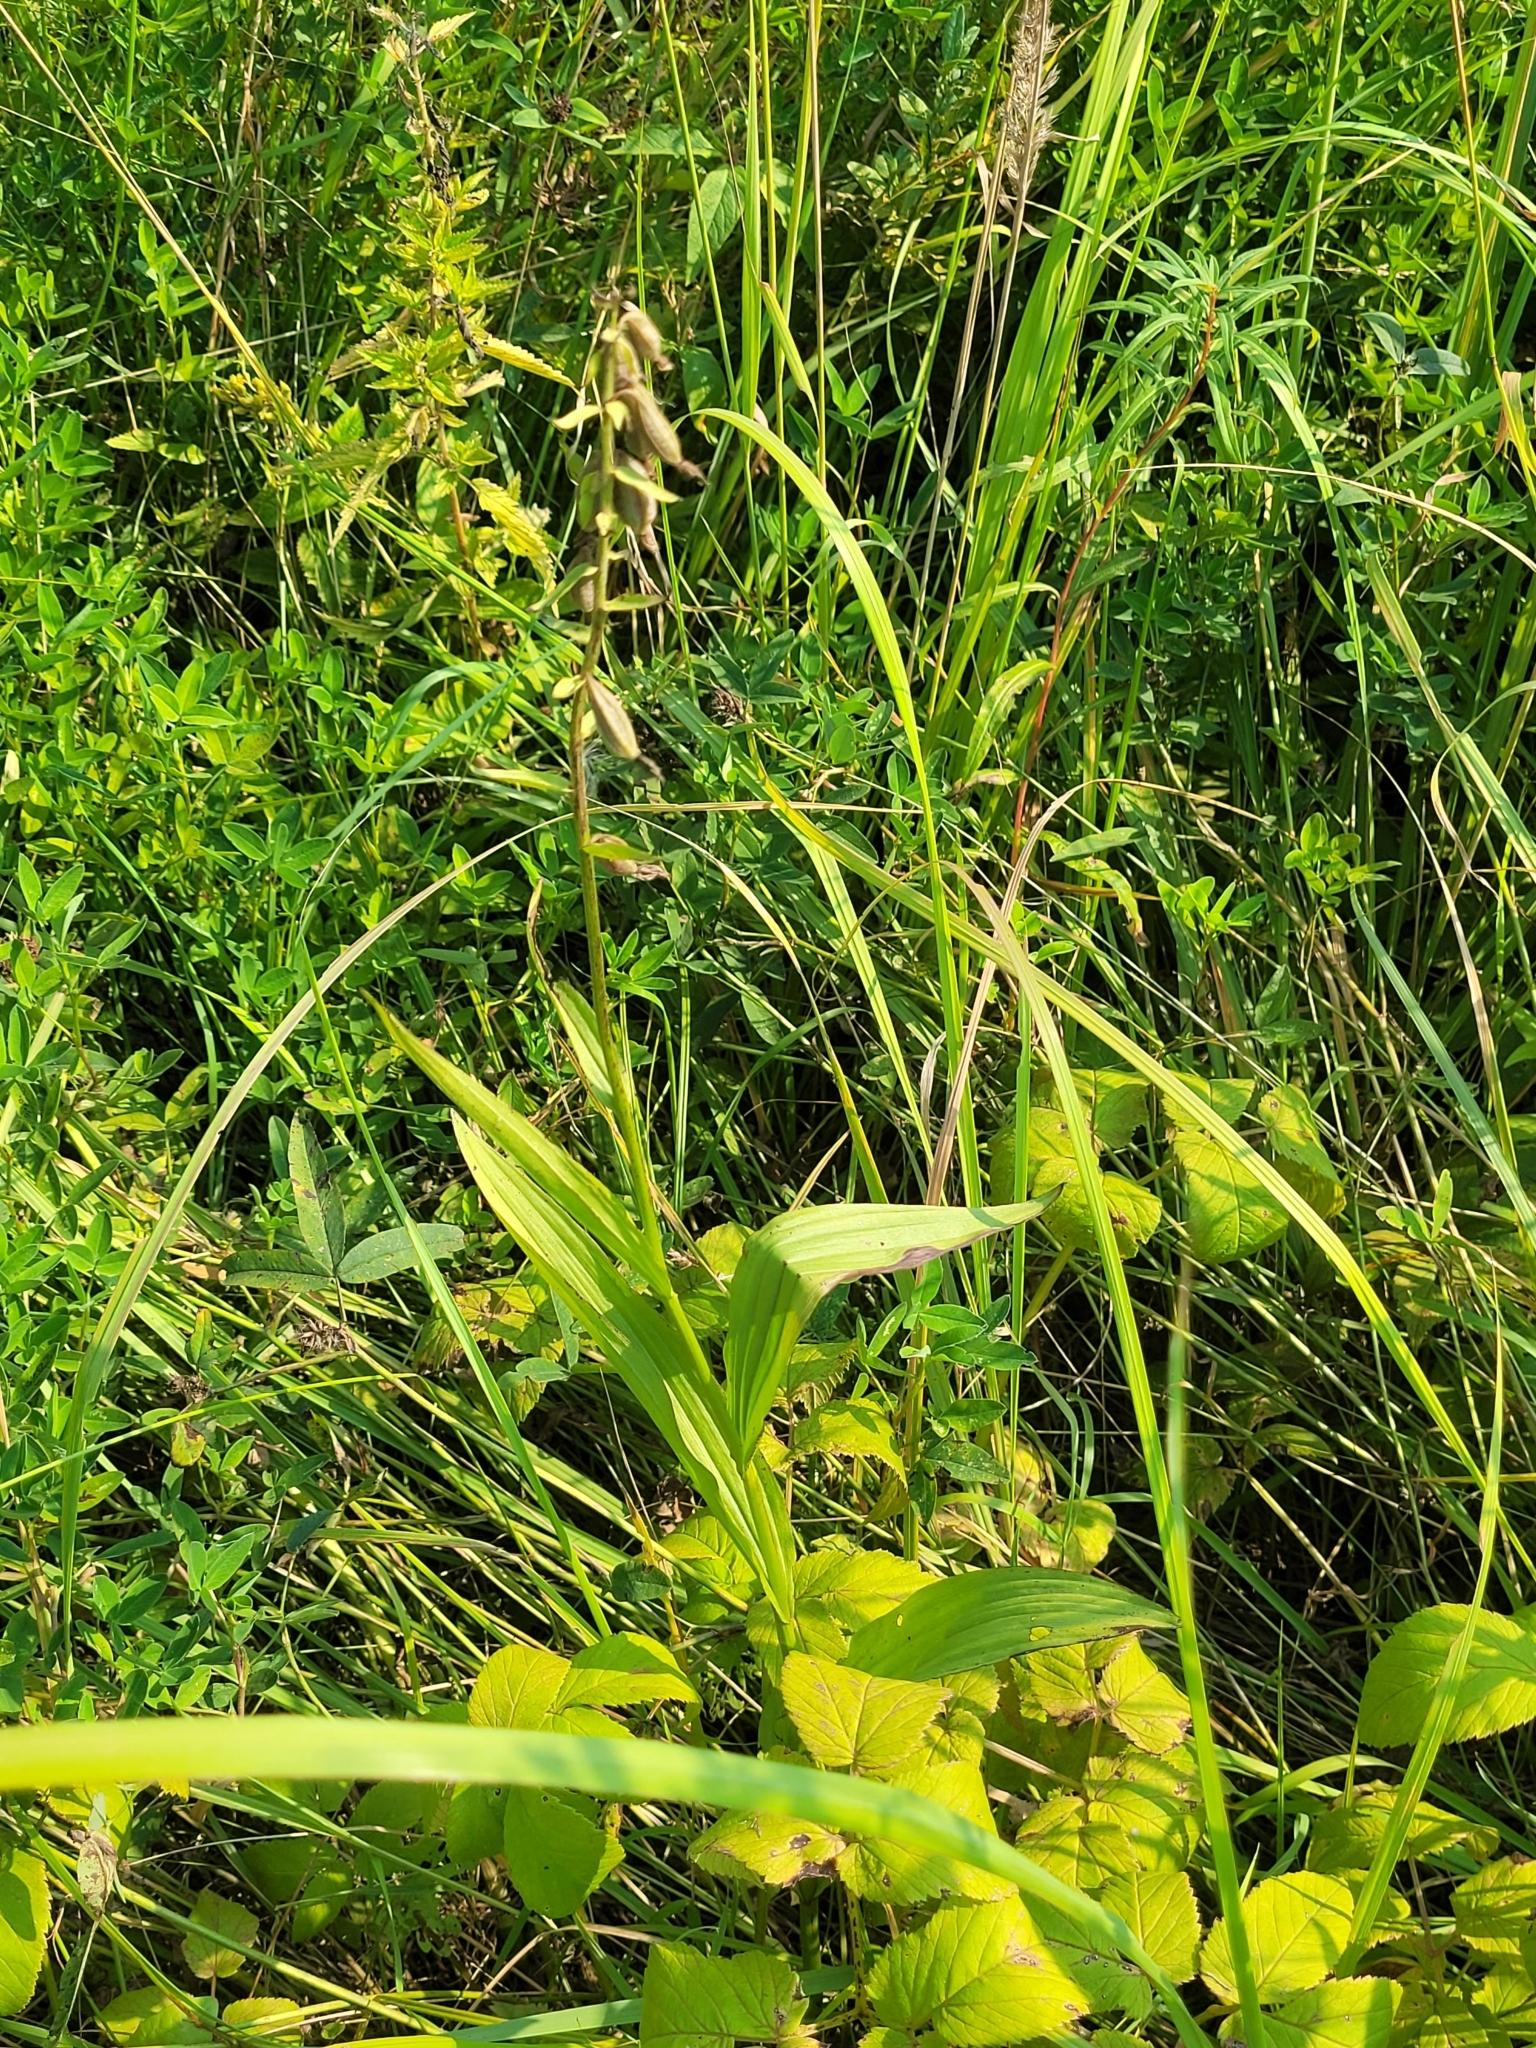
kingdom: Plantae
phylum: Tracheophyta
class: Liliopsida
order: Asparagales
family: Orchidaceae
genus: Epipactis
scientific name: Epipactis palustris
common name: Marsh helleborine
